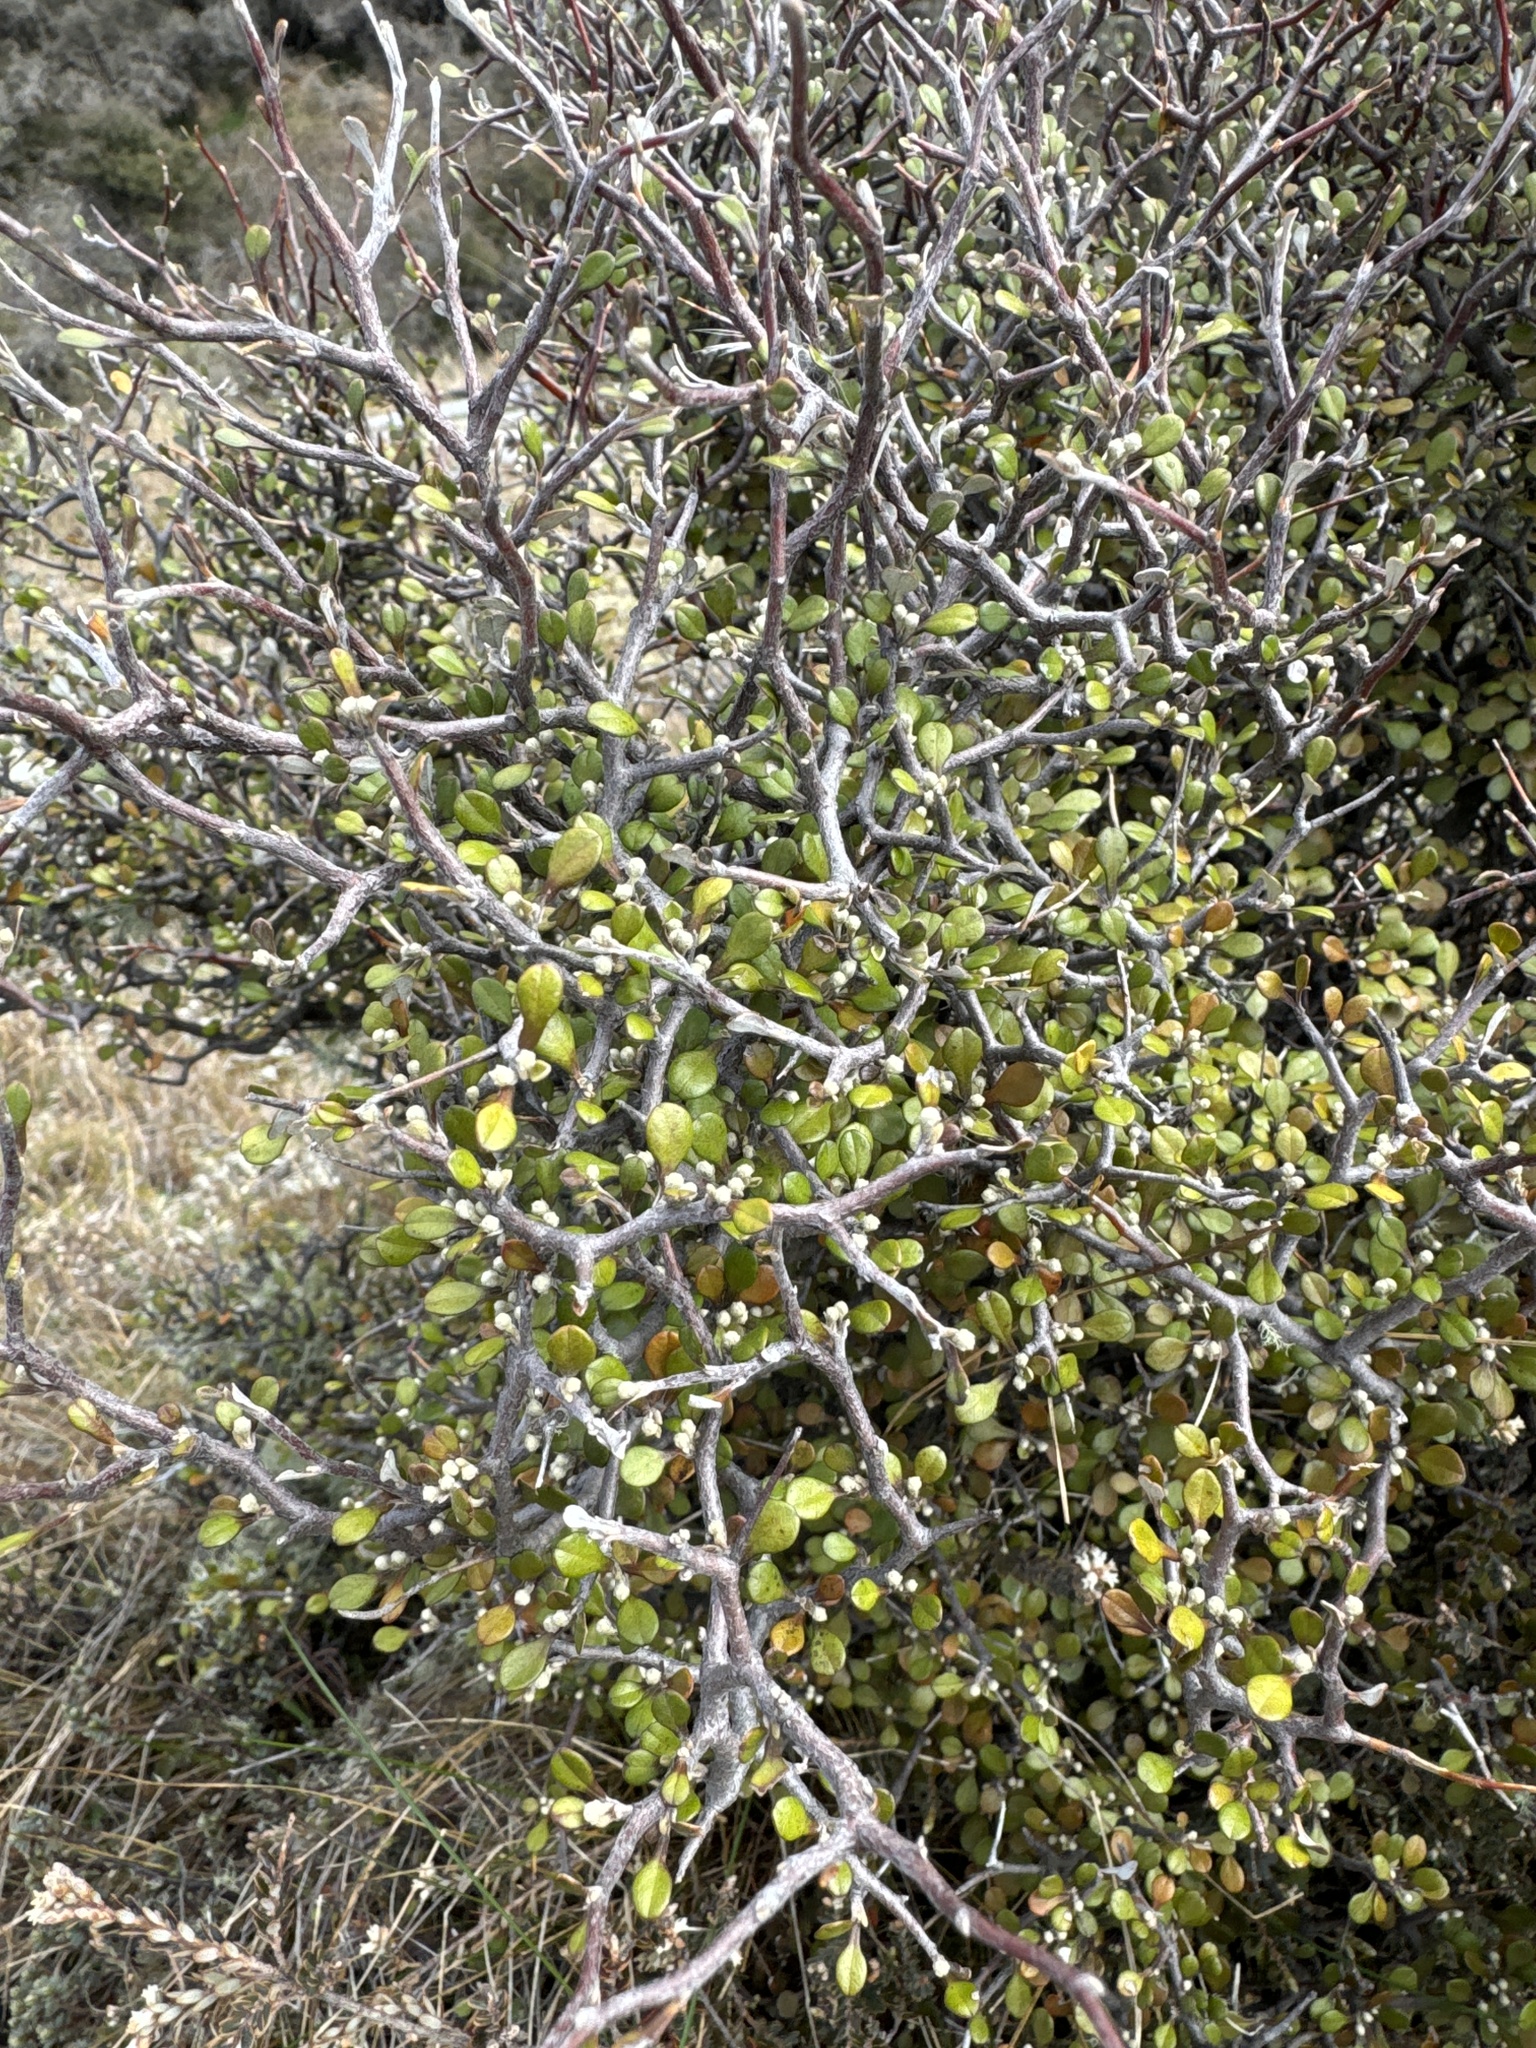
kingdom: Plantae
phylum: Tracheophyta
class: Magnoliopsida
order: Asterales
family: Argophyllaceae
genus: Corokia
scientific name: Corokia cotoneaster
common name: Wire nettingbush
